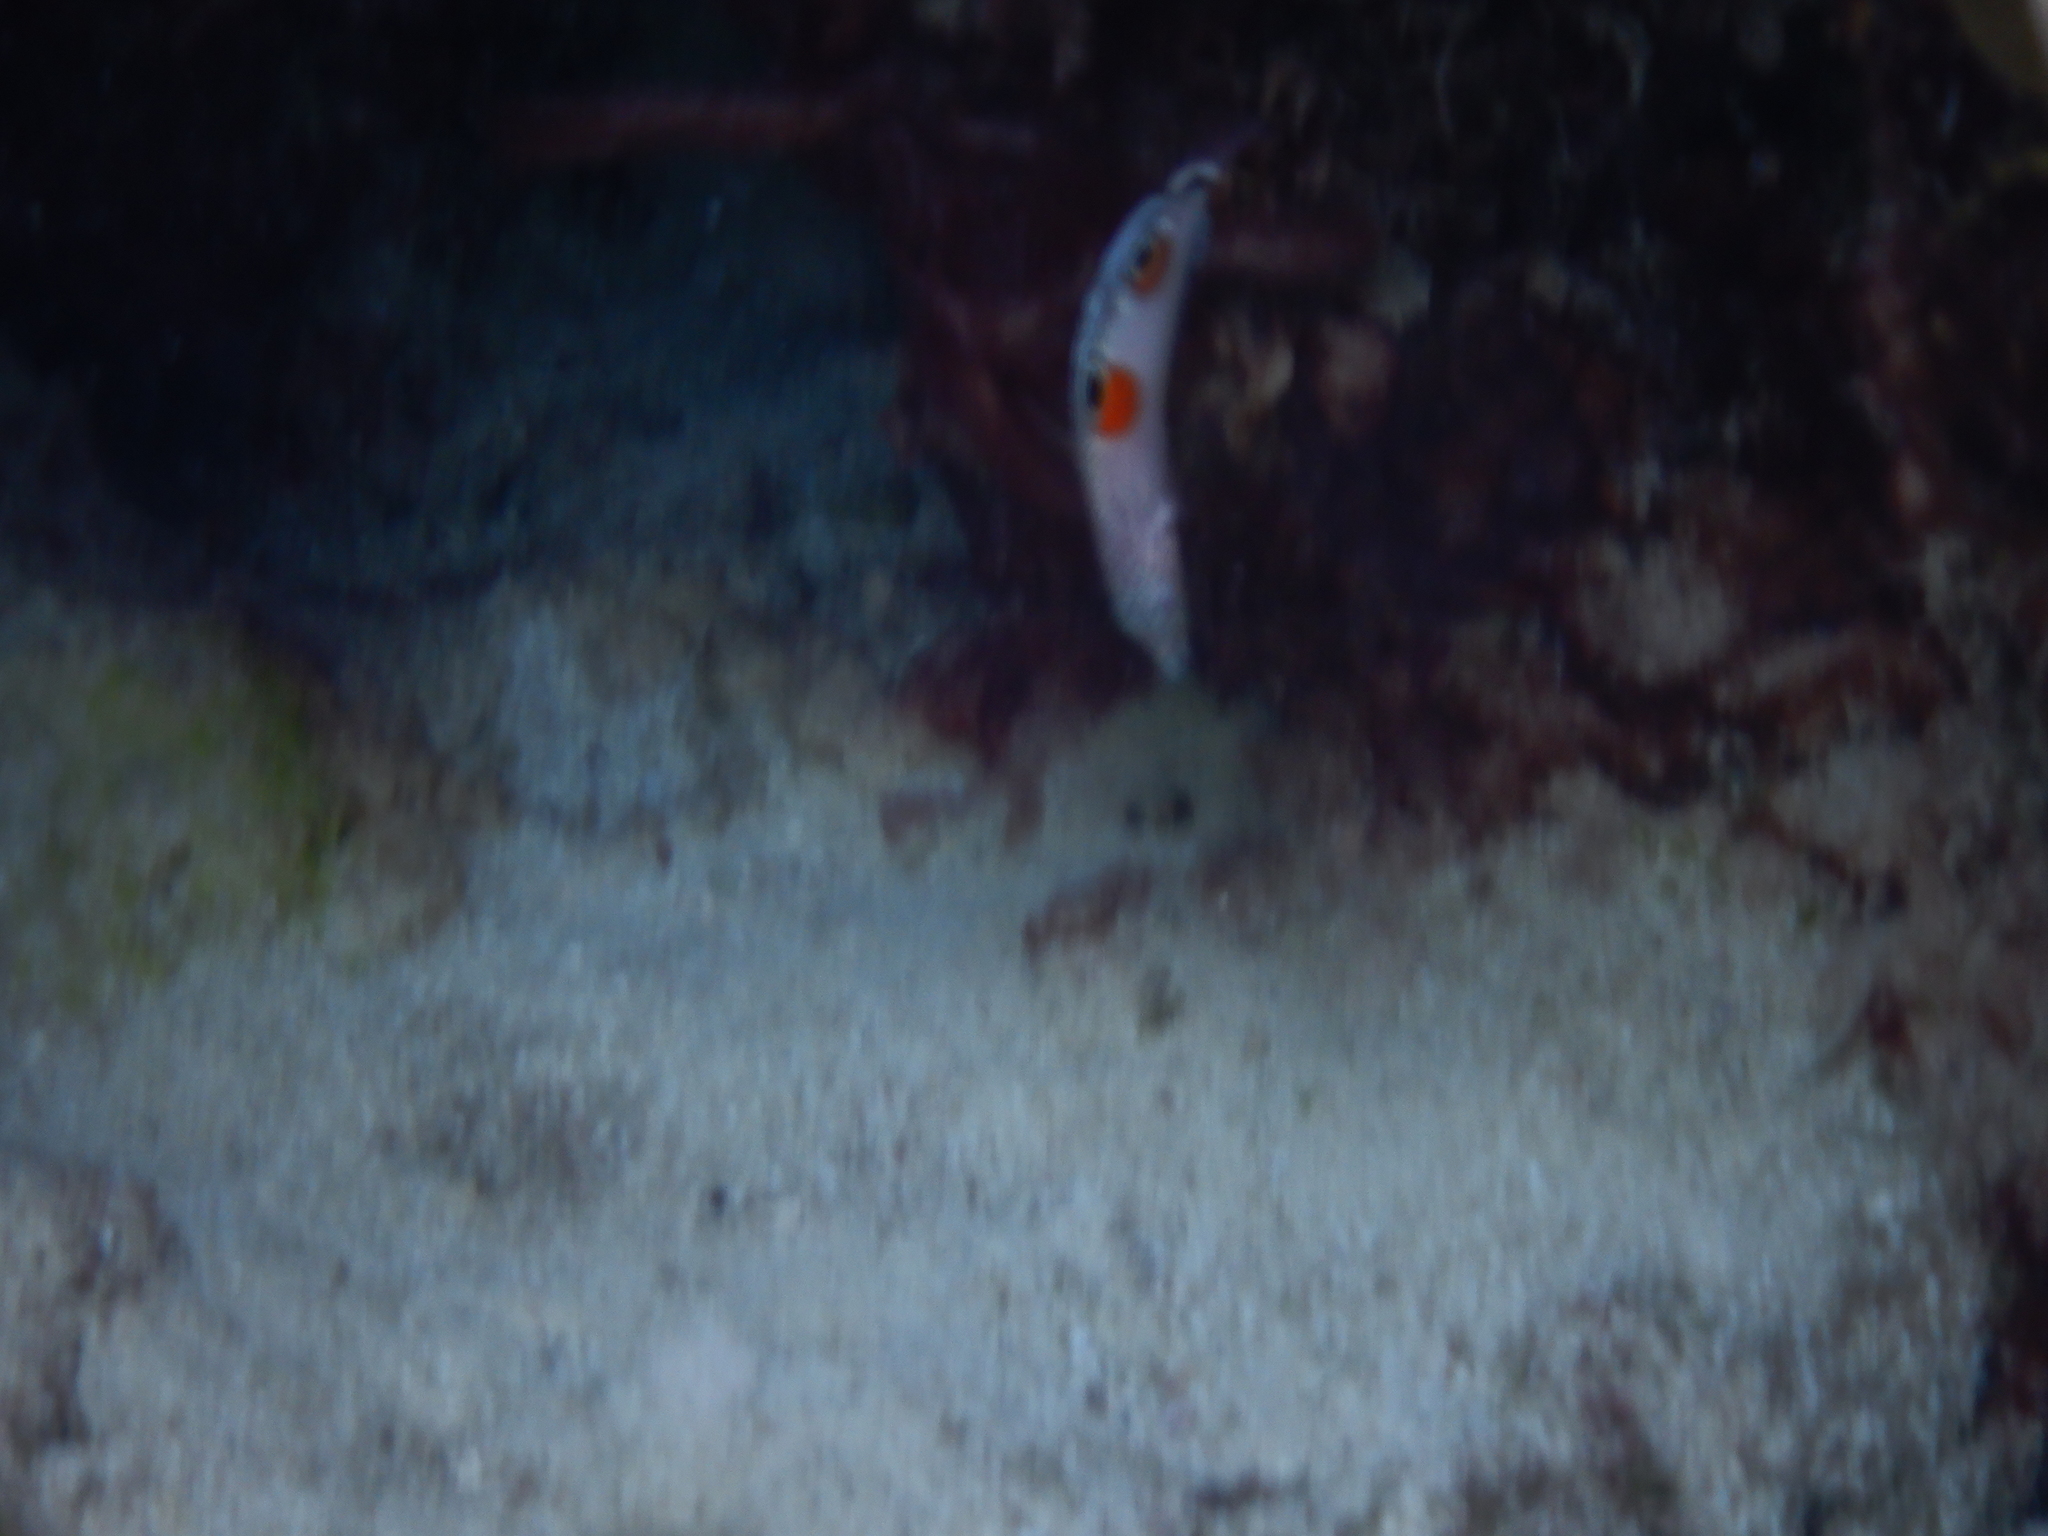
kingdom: Animalia
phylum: Chordata
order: Perciformes
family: Labridae
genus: Coris
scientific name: Coris aygula
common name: Clown coris
